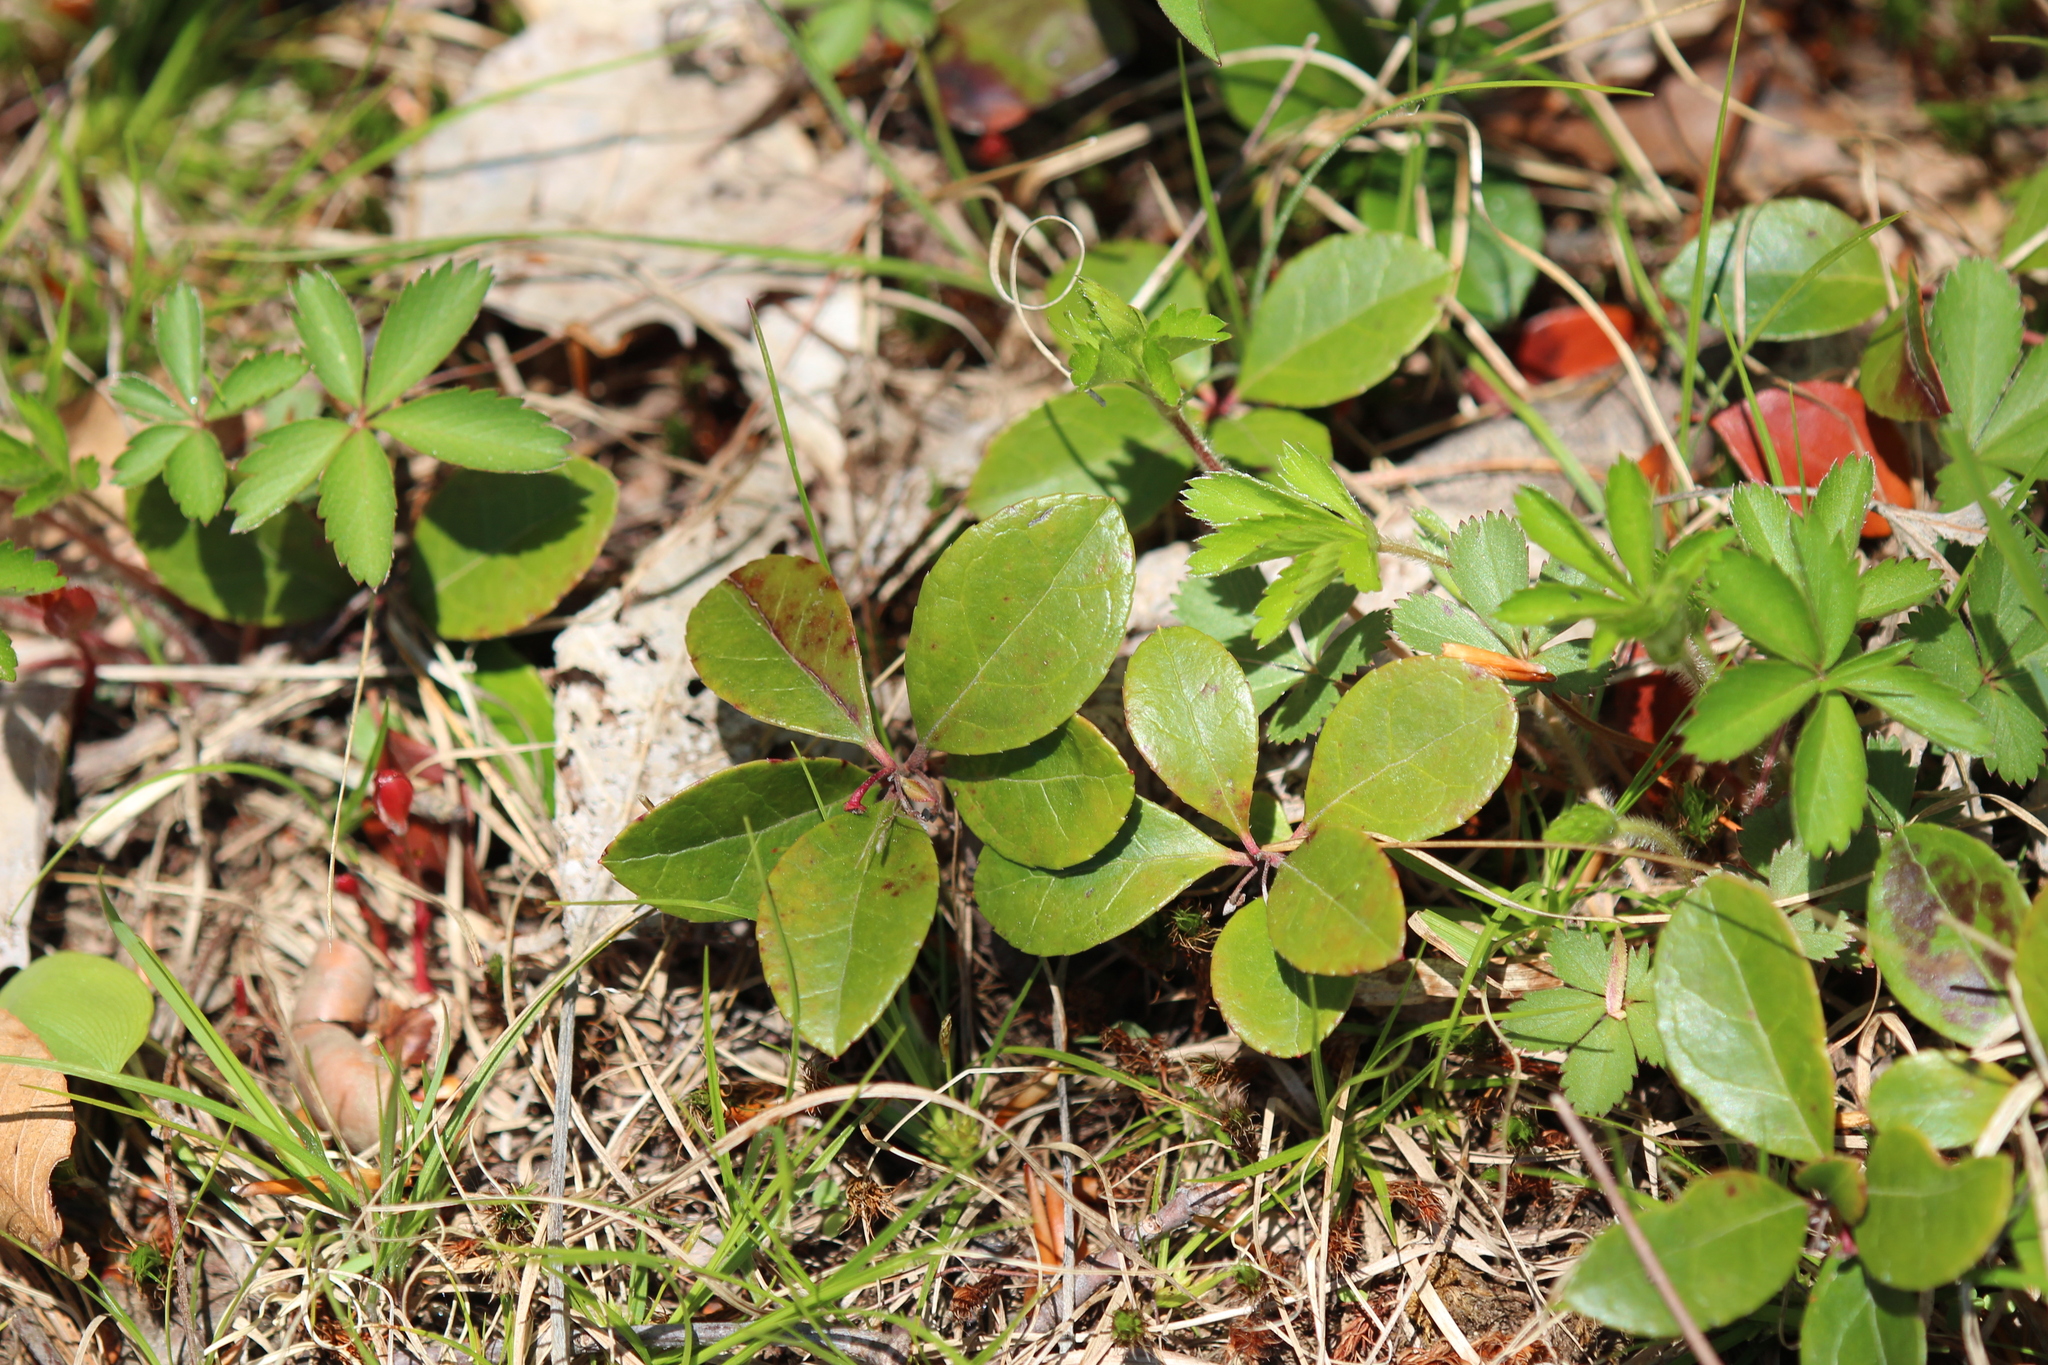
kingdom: Plantae
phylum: Tracheophyta
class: Magnoliopsida
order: Ericales
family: Ericaceae
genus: Gaultheria
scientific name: Gaultheria procumbens
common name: Checkerberry
